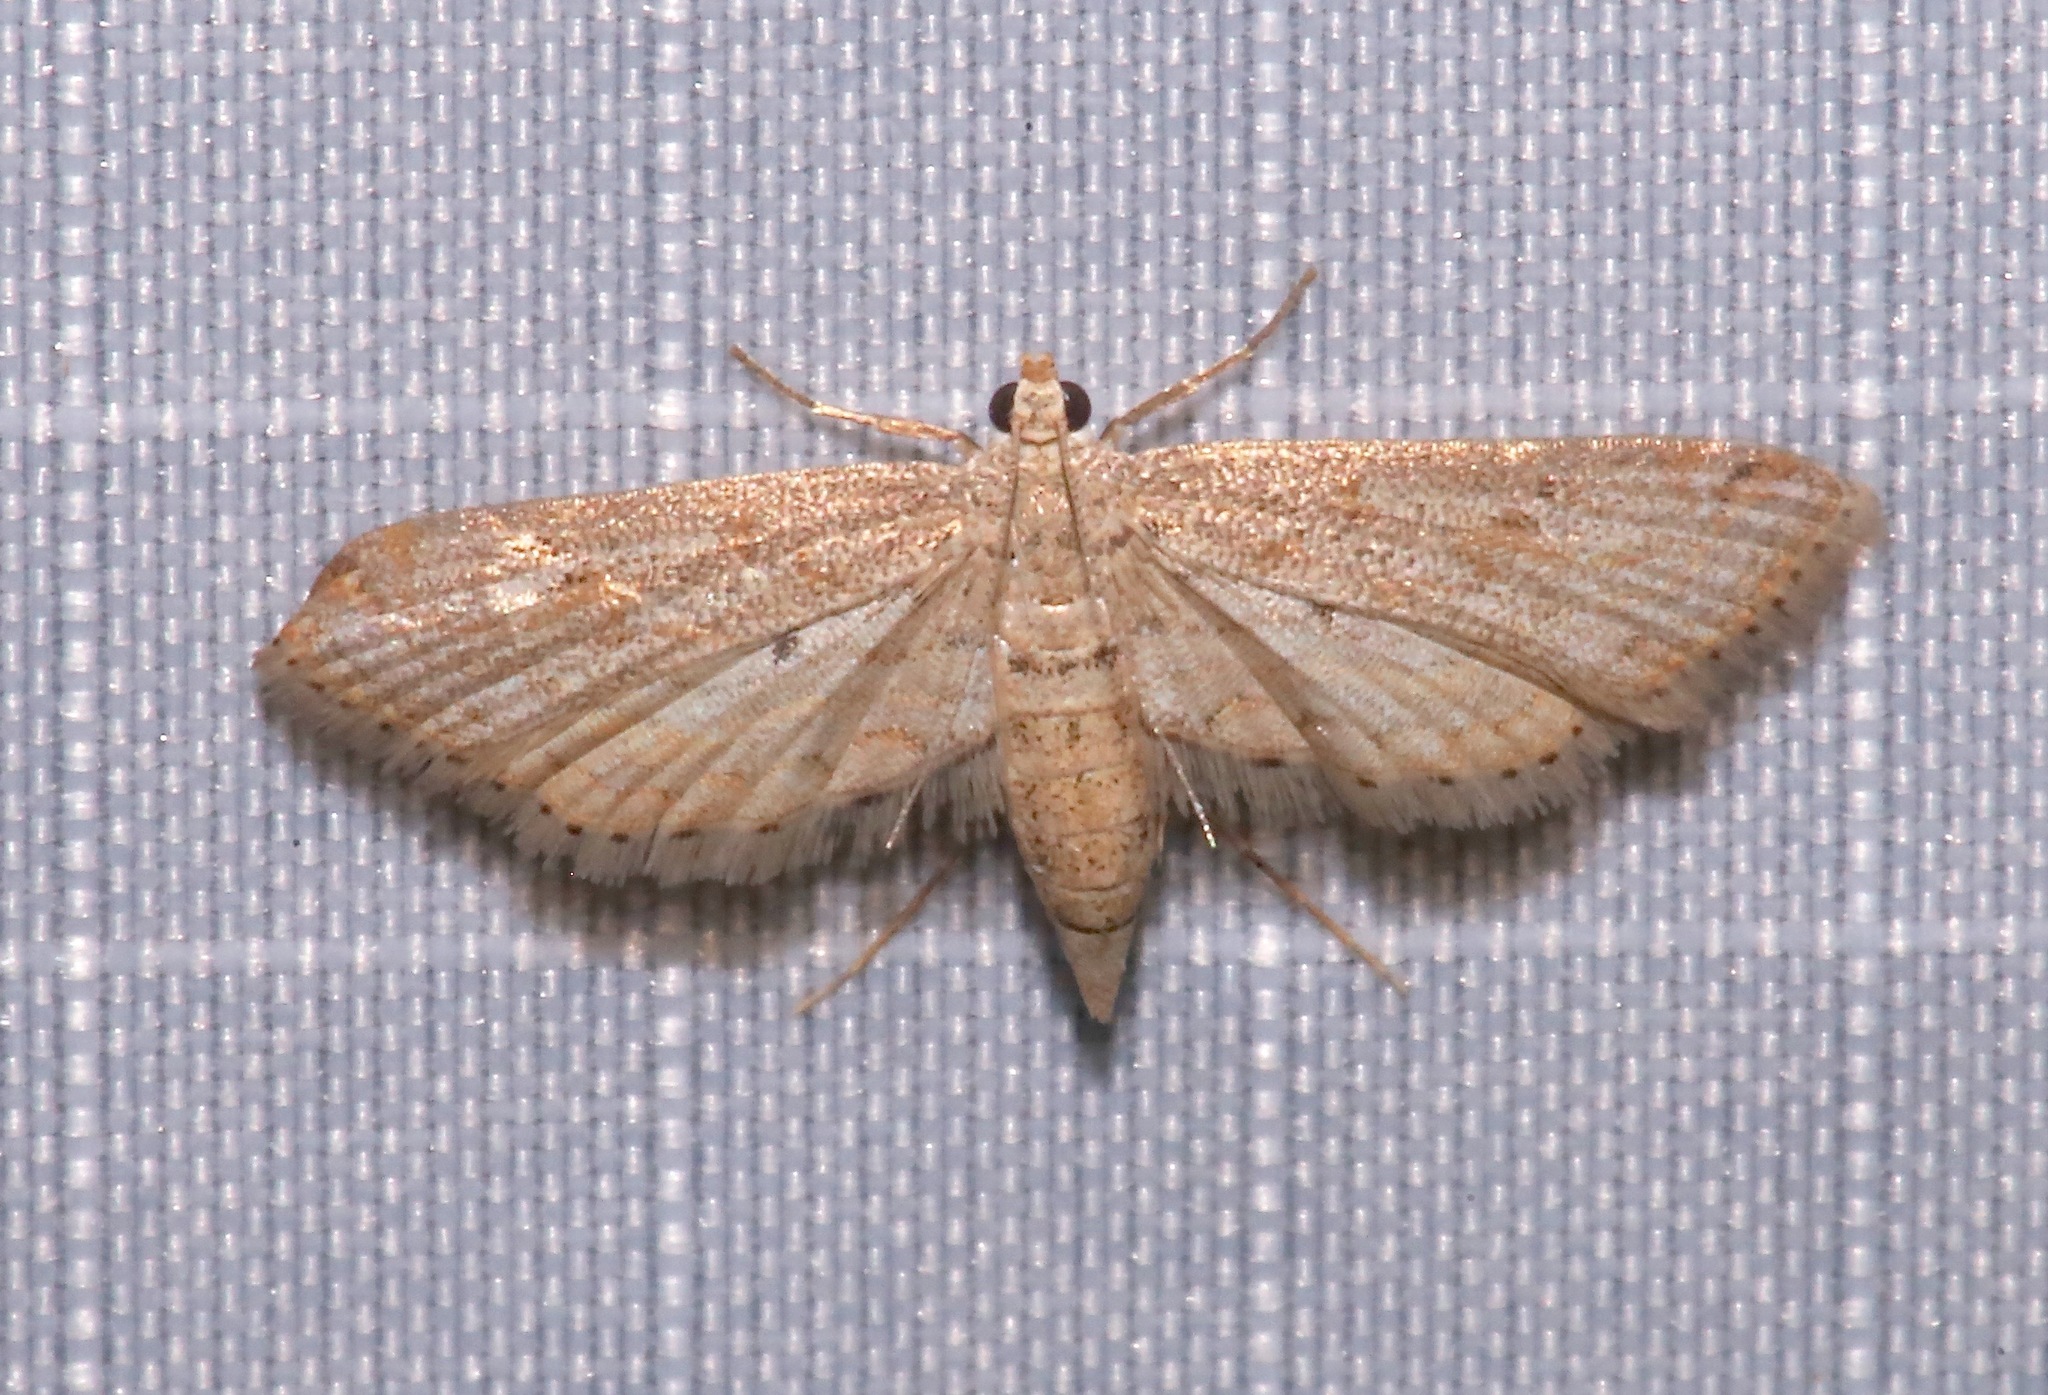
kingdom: Animalia
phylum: Arthropoda
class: Insecta
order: Lepidoptera
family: Crambidae
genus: Parapoynx
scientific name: Parapoynx allionealis
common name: Bladderwort casemaker
